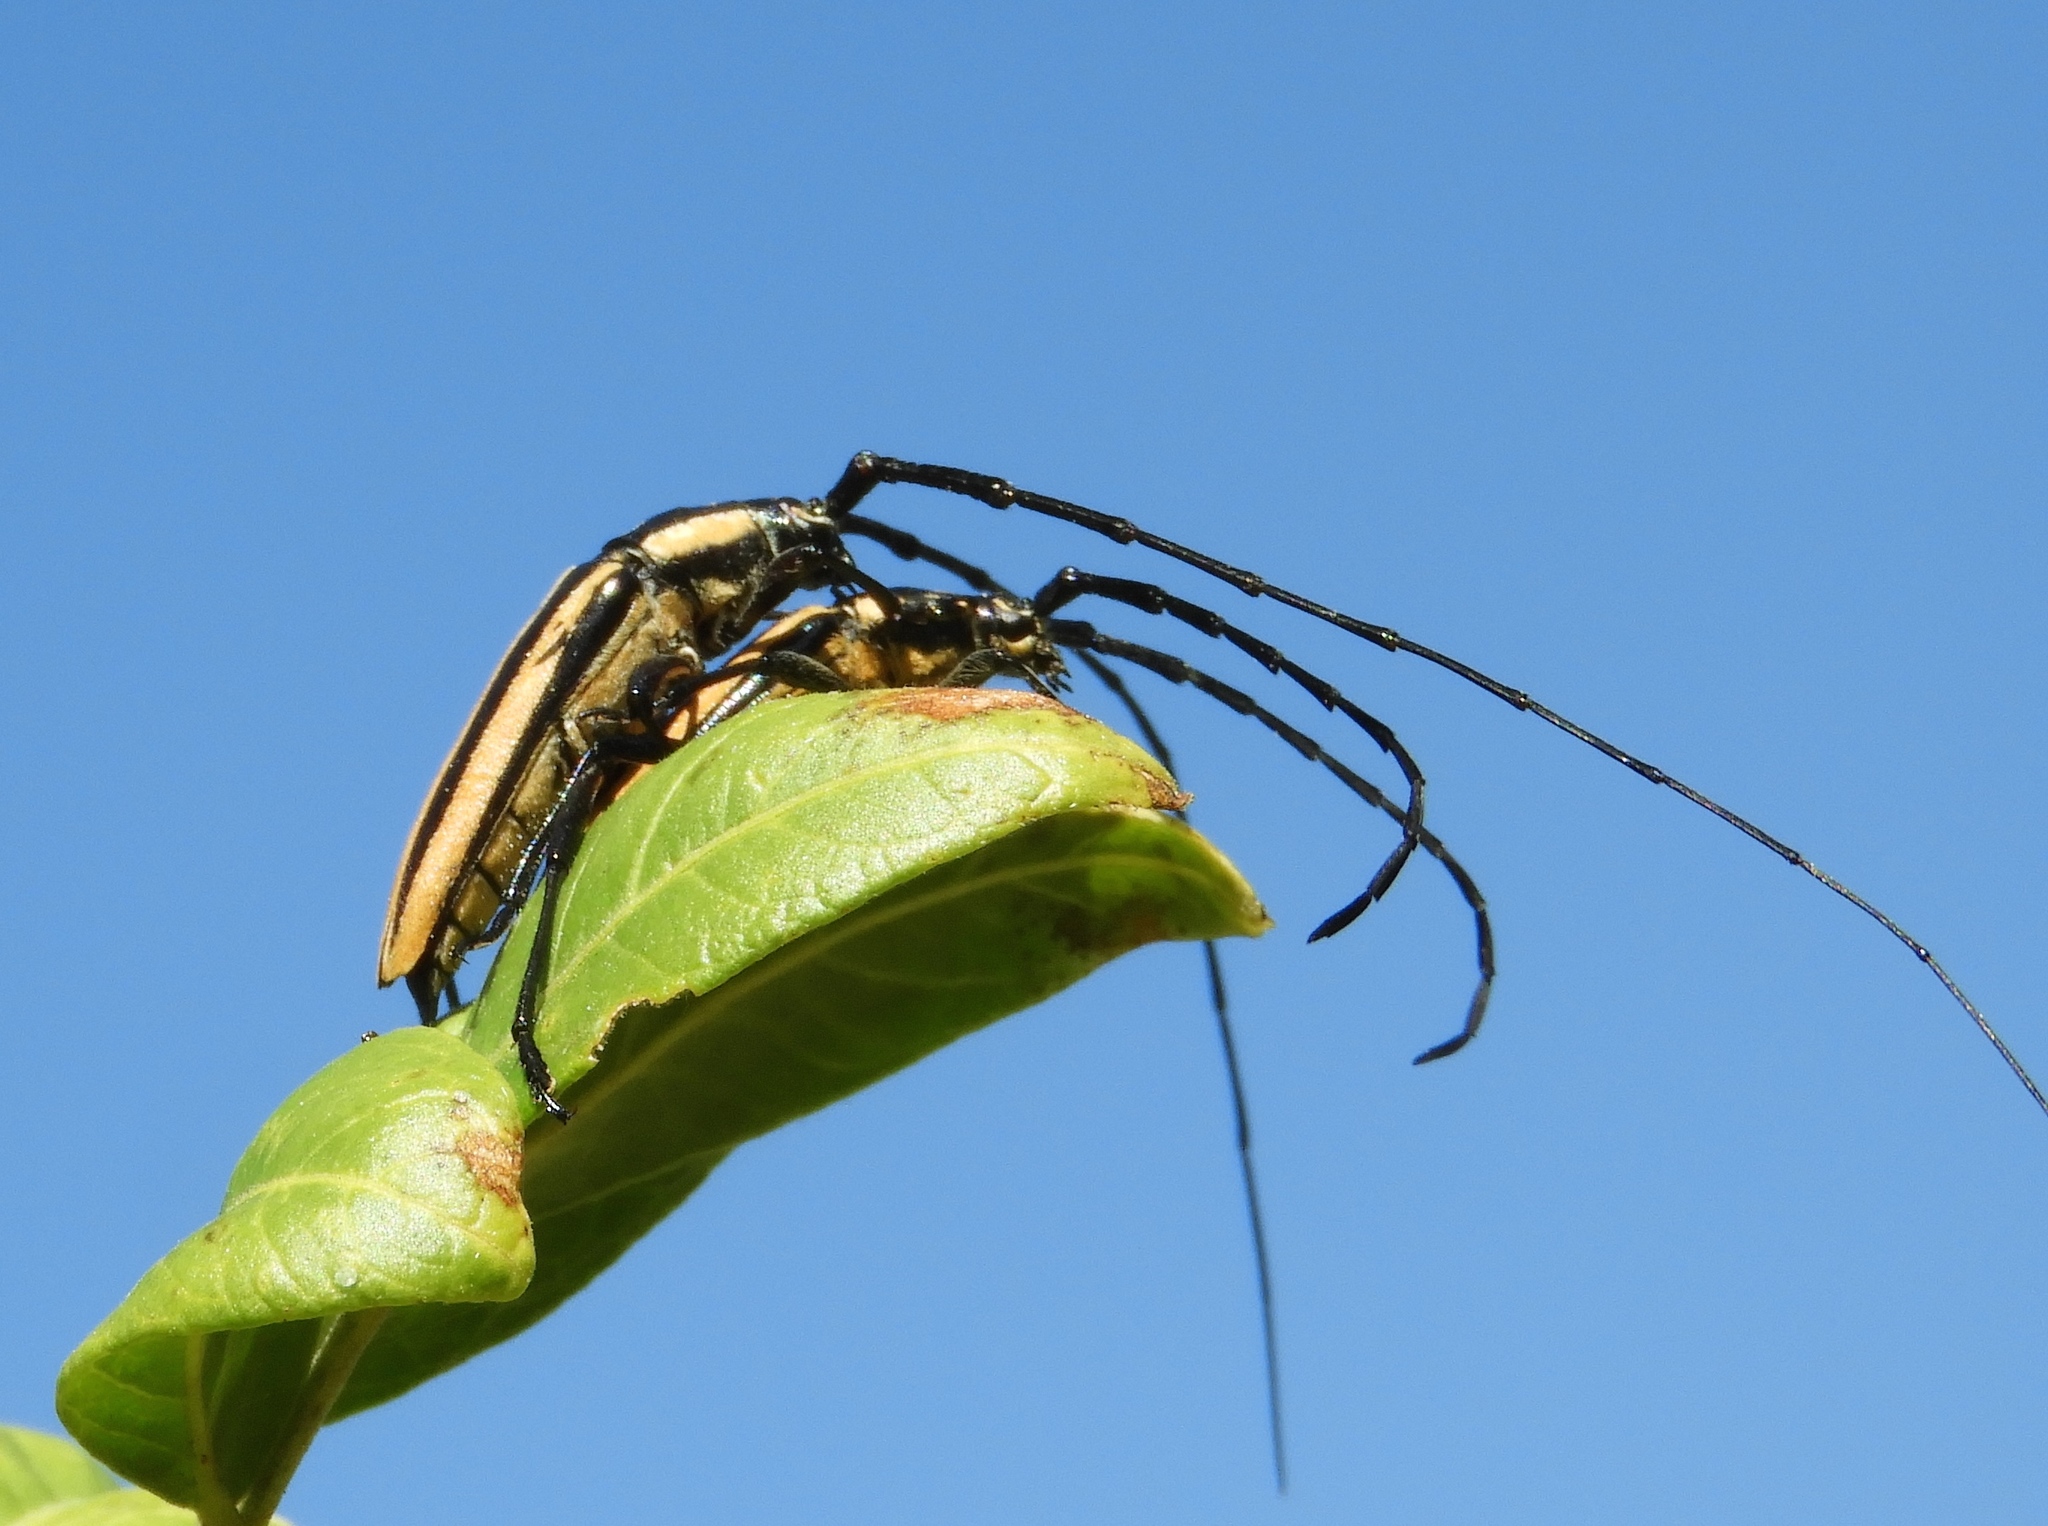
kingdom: Animalia
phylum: Arthropoda
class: Insecta
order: Coleoptera
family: Cerambycidae
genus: Sphaenothecus
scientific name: Sphaenothecus trilineatus
